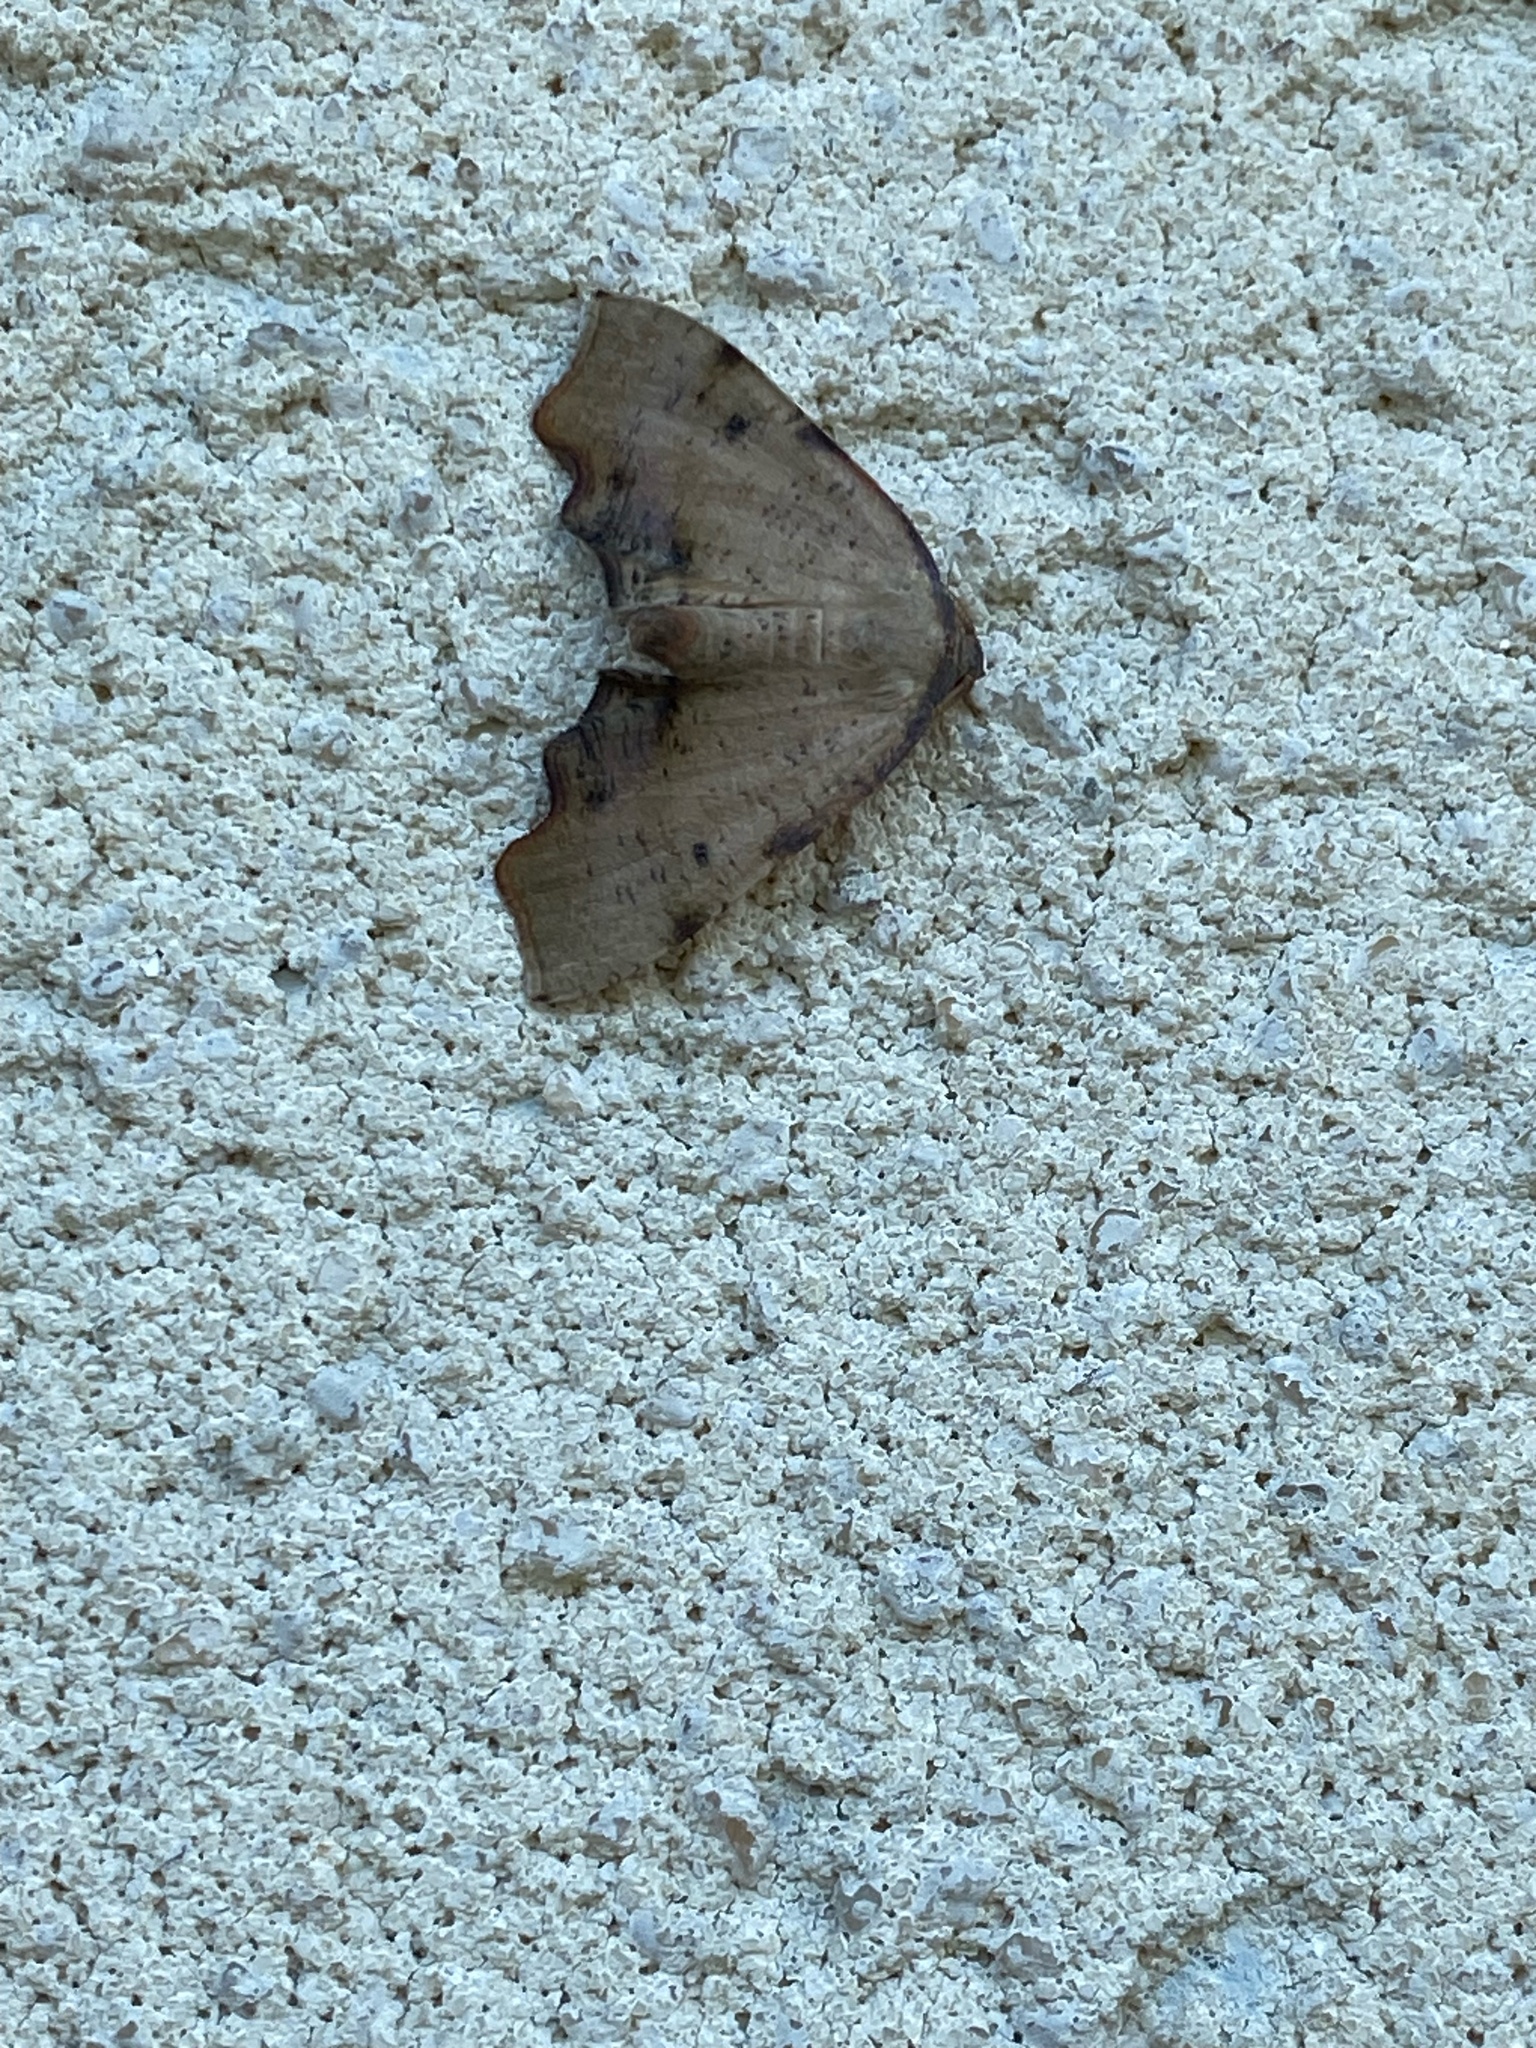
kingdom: Animalia
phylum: Arthropoda
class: Insecta
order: Lepidoptera
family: Geometridae
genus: Plagodis
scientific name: Plagodis fervidaria
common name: Fervid plagodis
